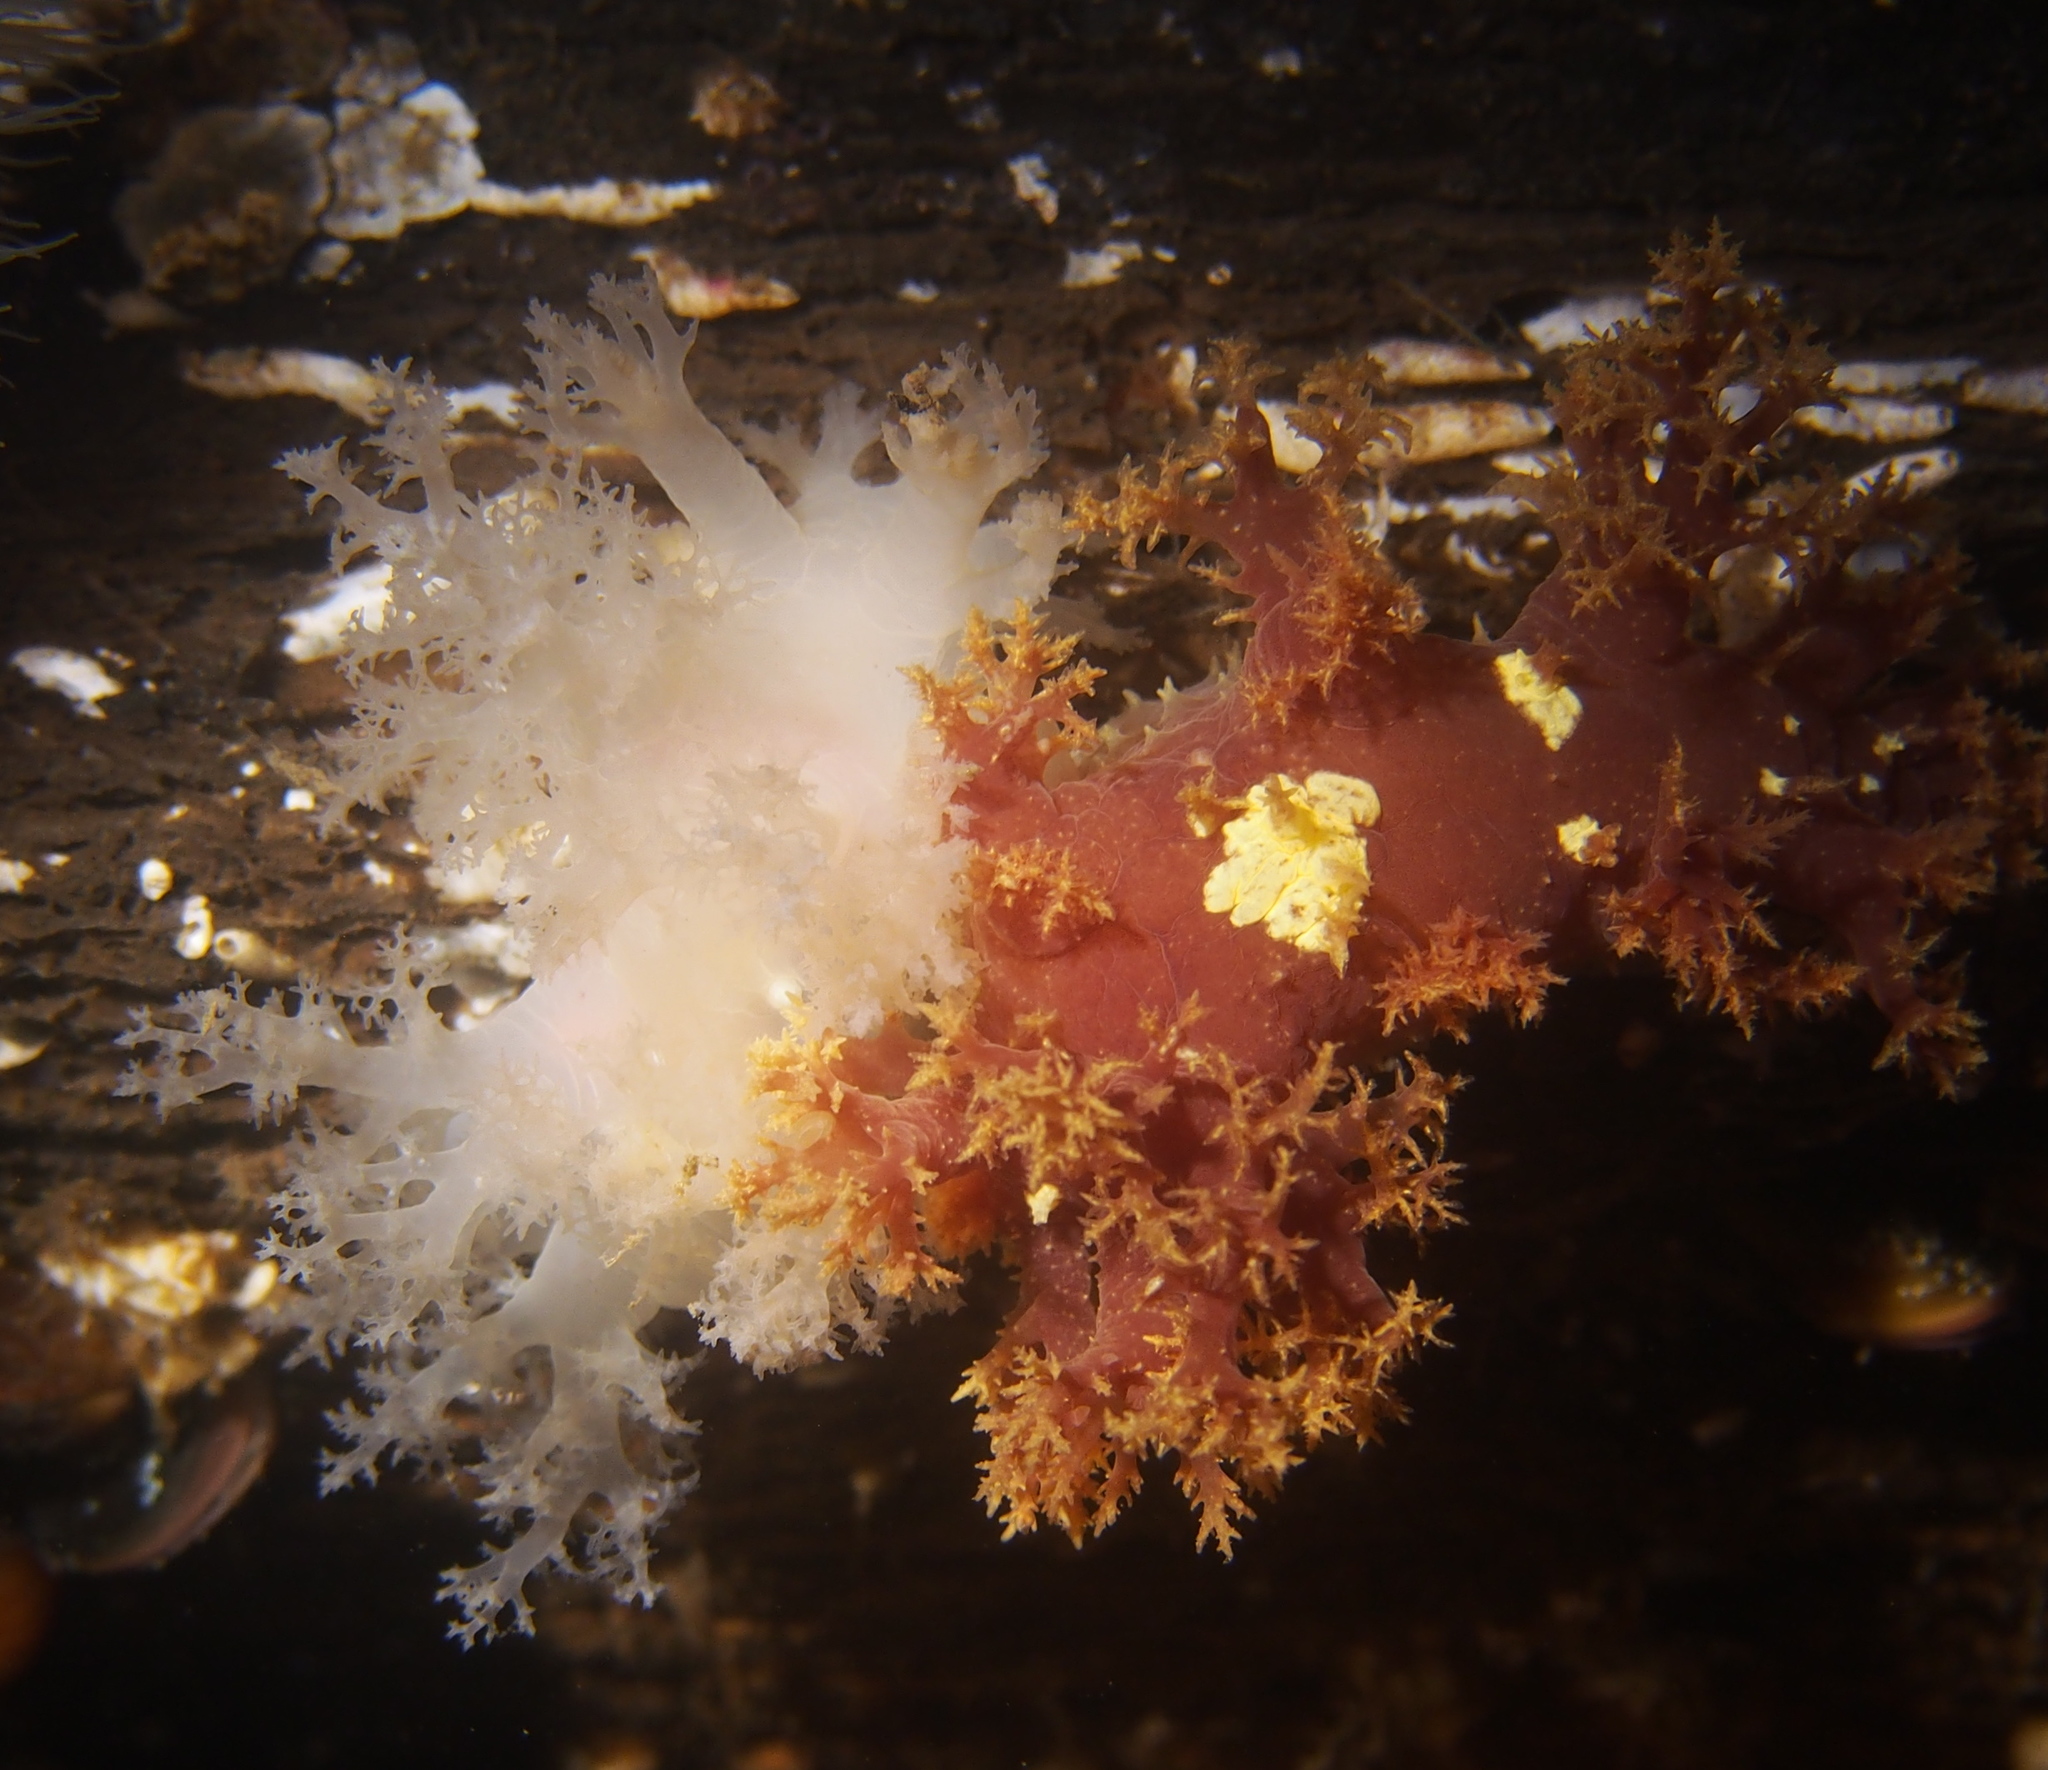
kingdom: Animalia
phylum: Mollusca
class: Gastropoda
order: Nudibranchia
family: Dendronotidae
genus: Dendronotus
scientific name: Dendronotus lacteus
